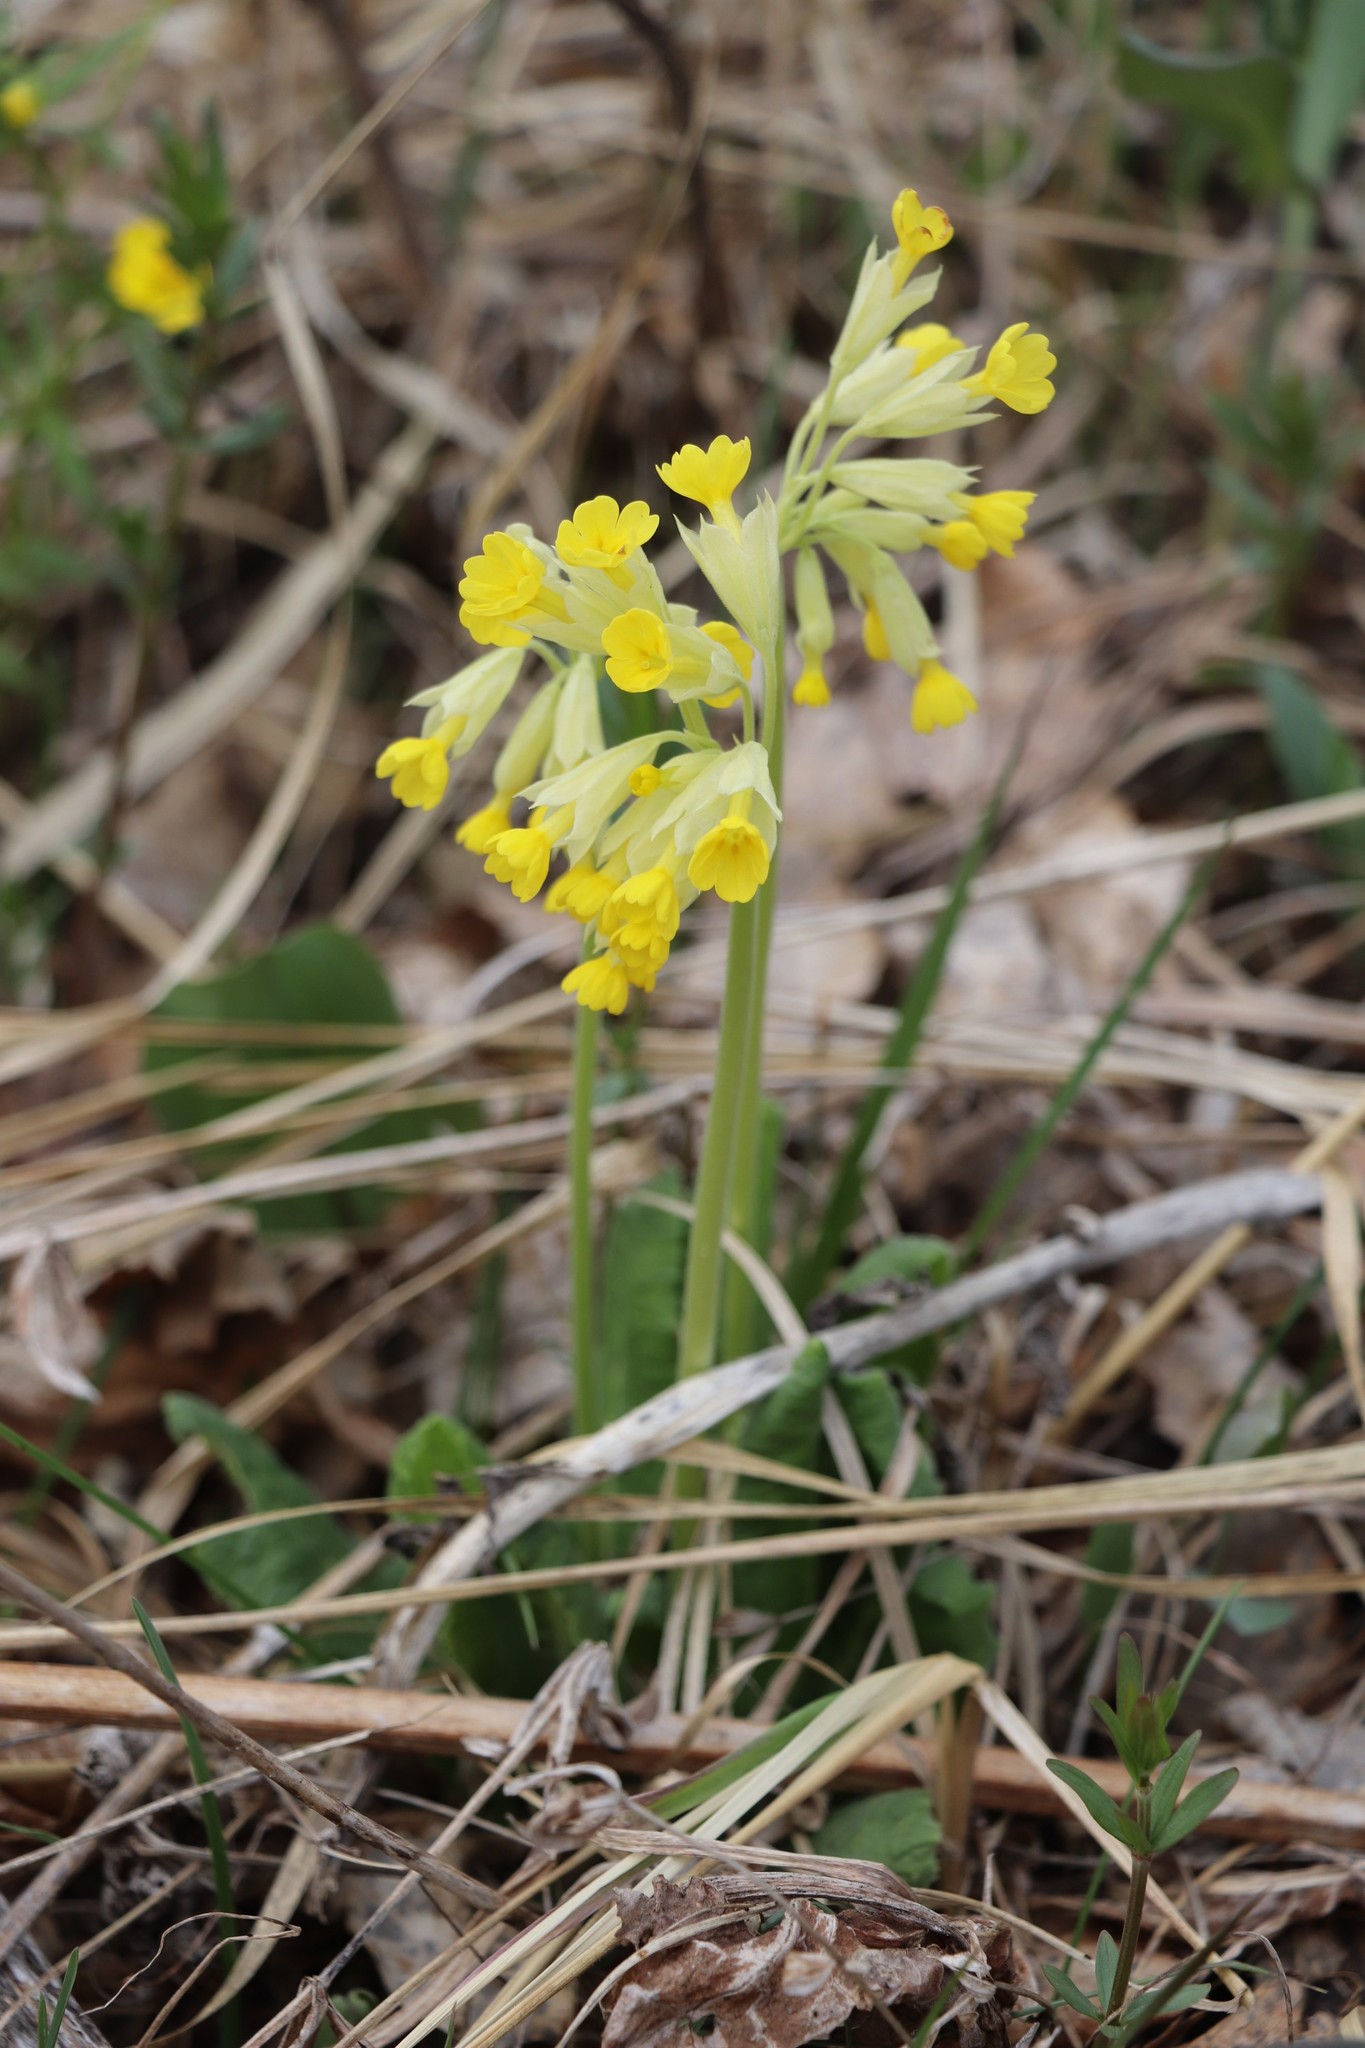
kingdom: Plantae
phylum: Tracheophyta
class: Magnoliopsida
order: Ericales
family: Primulaceae
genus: Primula
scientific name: Primula veris
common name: Cowslip
